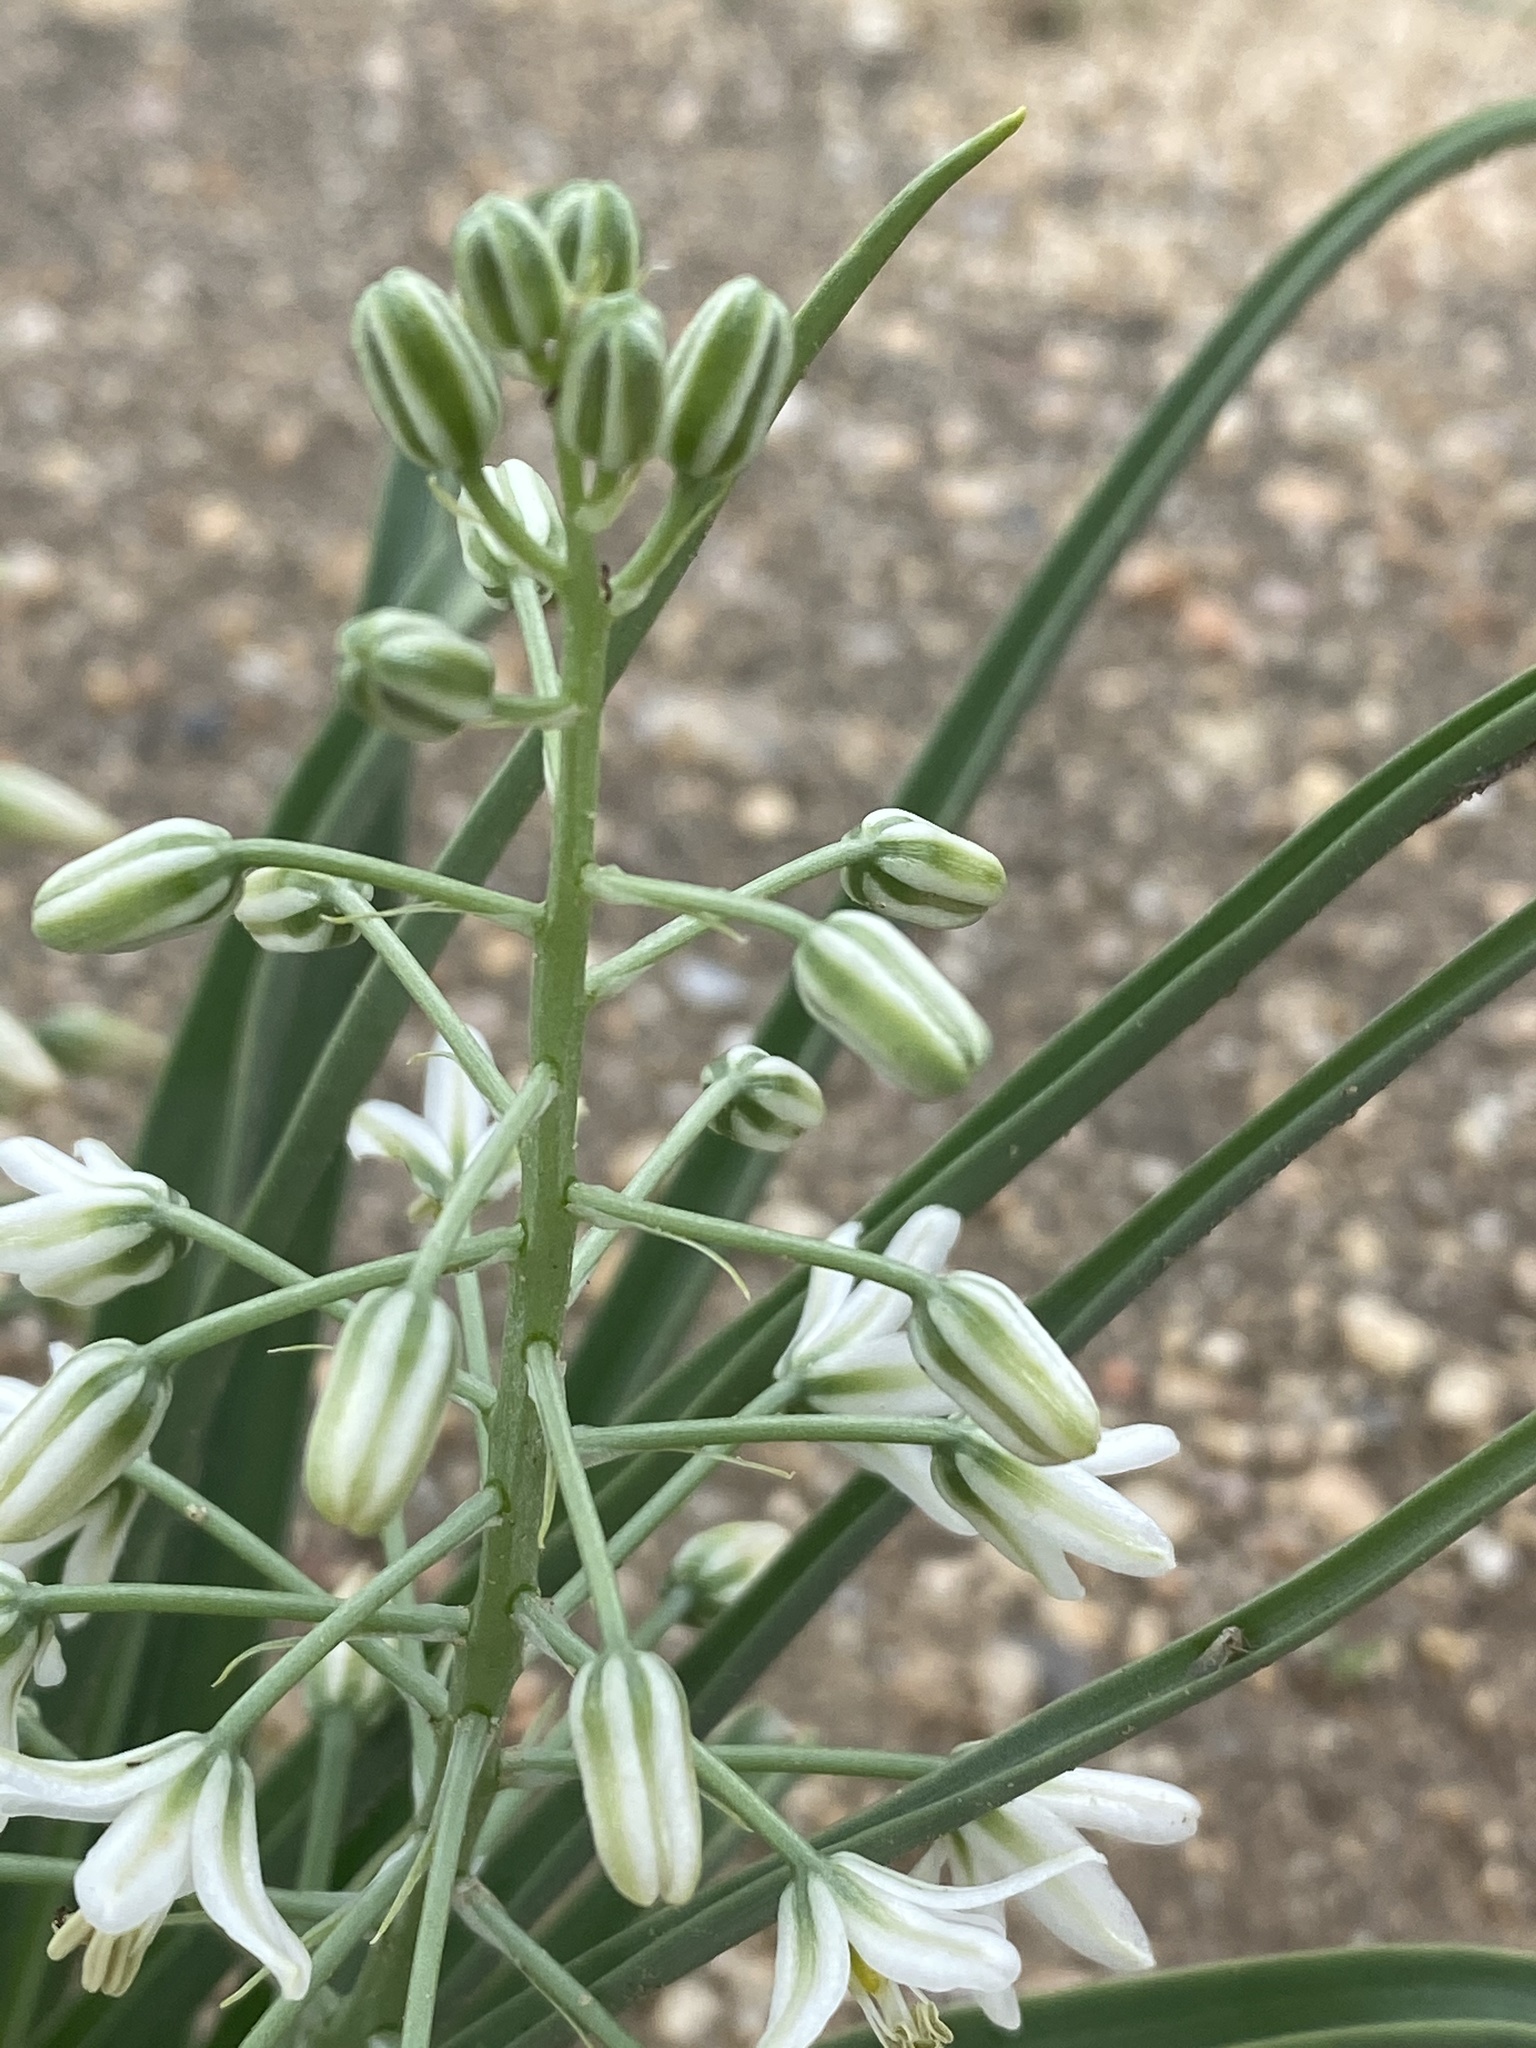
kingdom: Plantae
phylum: Tracheophyta
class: Liliopsida
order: Asparagales
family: Asparagaceae
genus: Albuca
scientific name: Albuca stapffii
